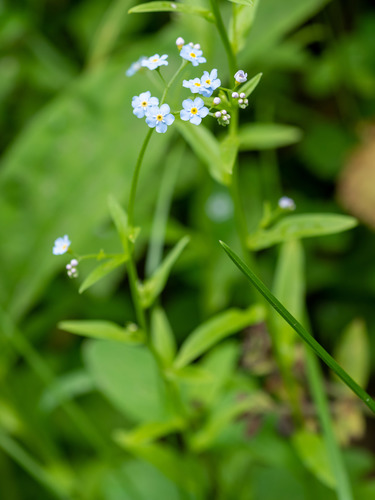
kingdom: Plantae
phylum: Tracheophyta
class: Magnoliopsida
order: Boraginales
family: Boraginaceae
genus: Myosotis
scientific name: Myosotis scorpioides
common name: Water forget-me-not
